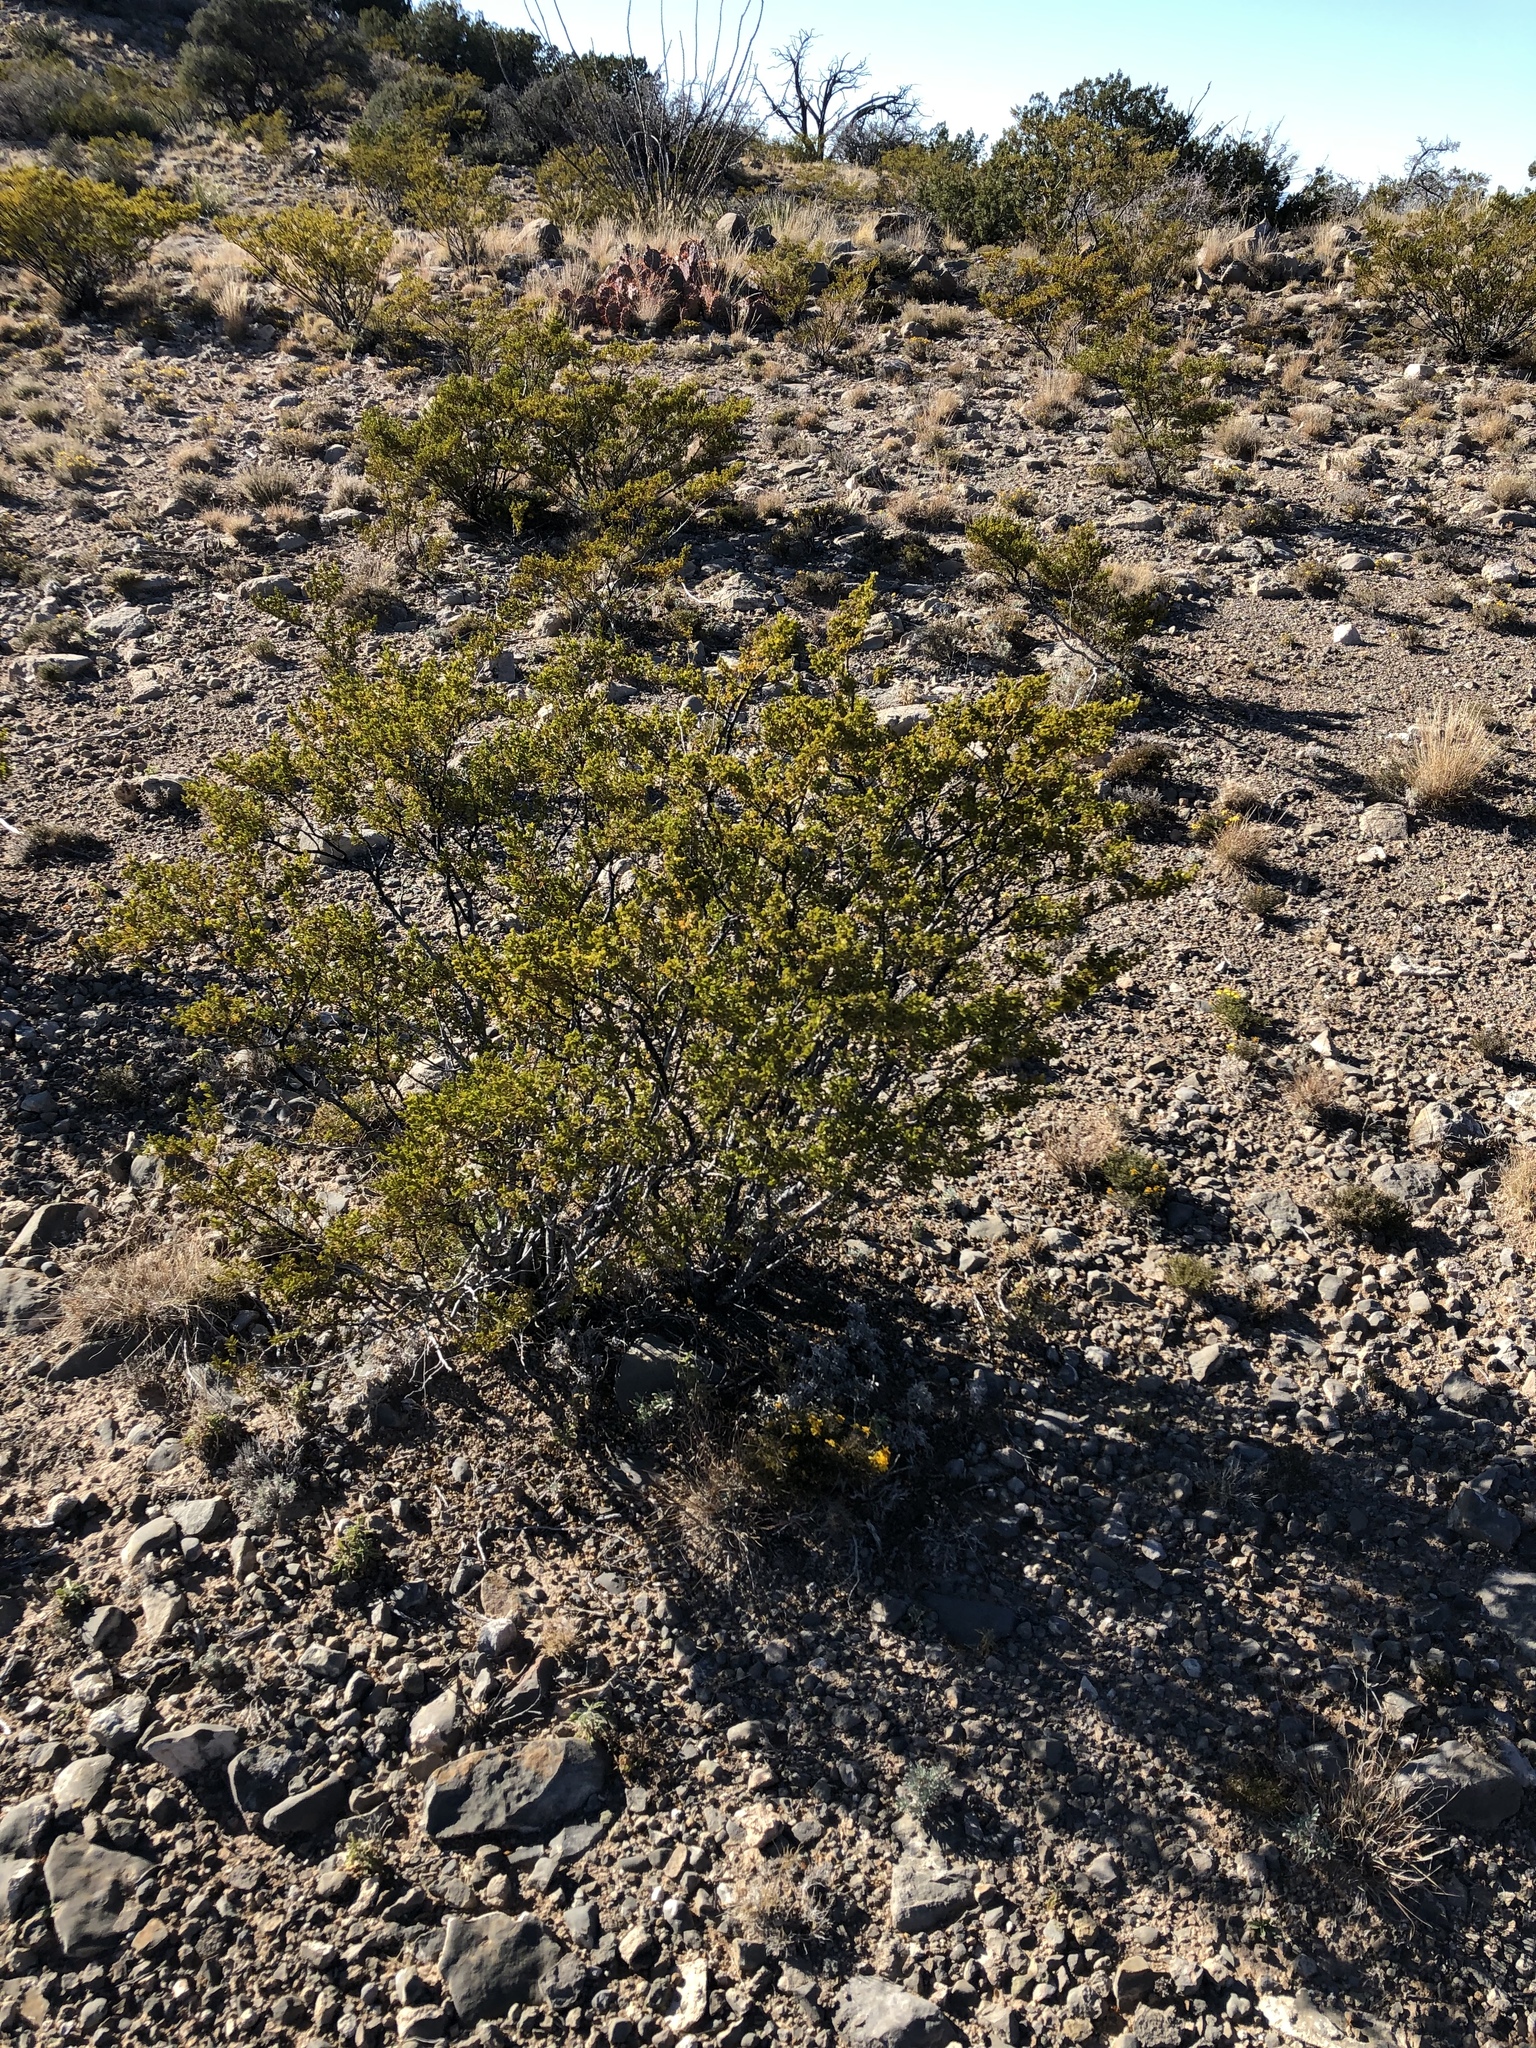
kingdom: Plantae
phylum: Tracheophyta
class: Magnoliopsida
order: Zygophyllales
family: Zygophyllaceae
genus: Larrea
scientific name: Larrea tridentata
